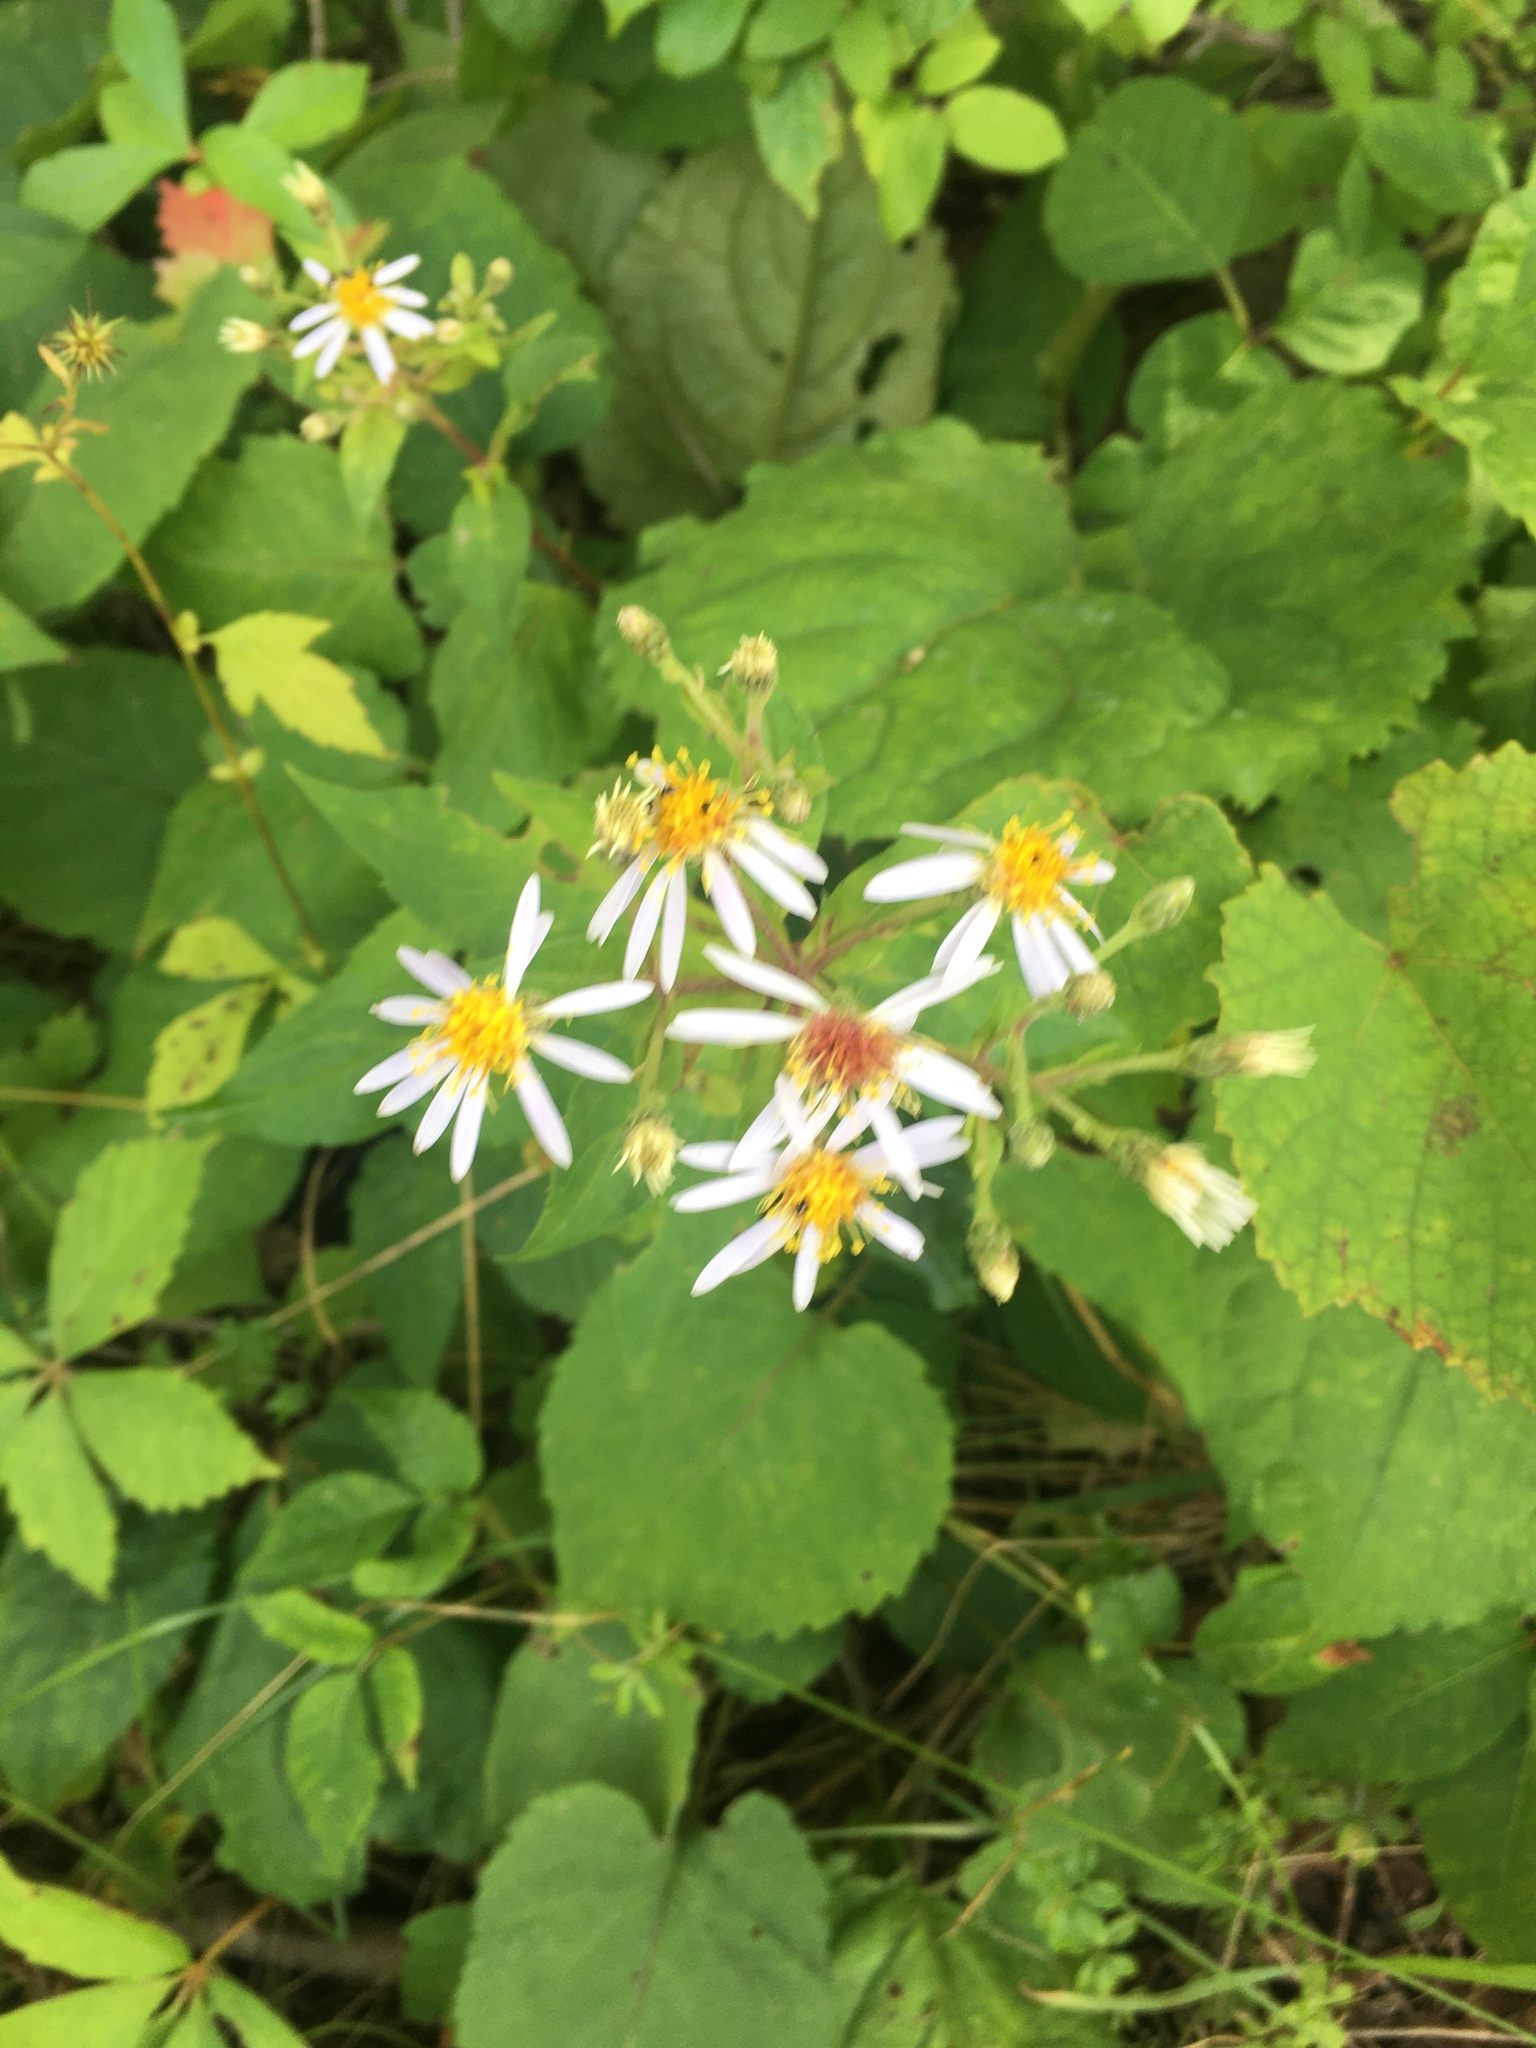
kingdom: Plantae
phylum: Tracheophyta
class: Magnoliopsida
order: Asterales
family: Asteraceae
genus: Eurybia
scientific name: Eurybia macrophylla
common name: Big-leaved aster
